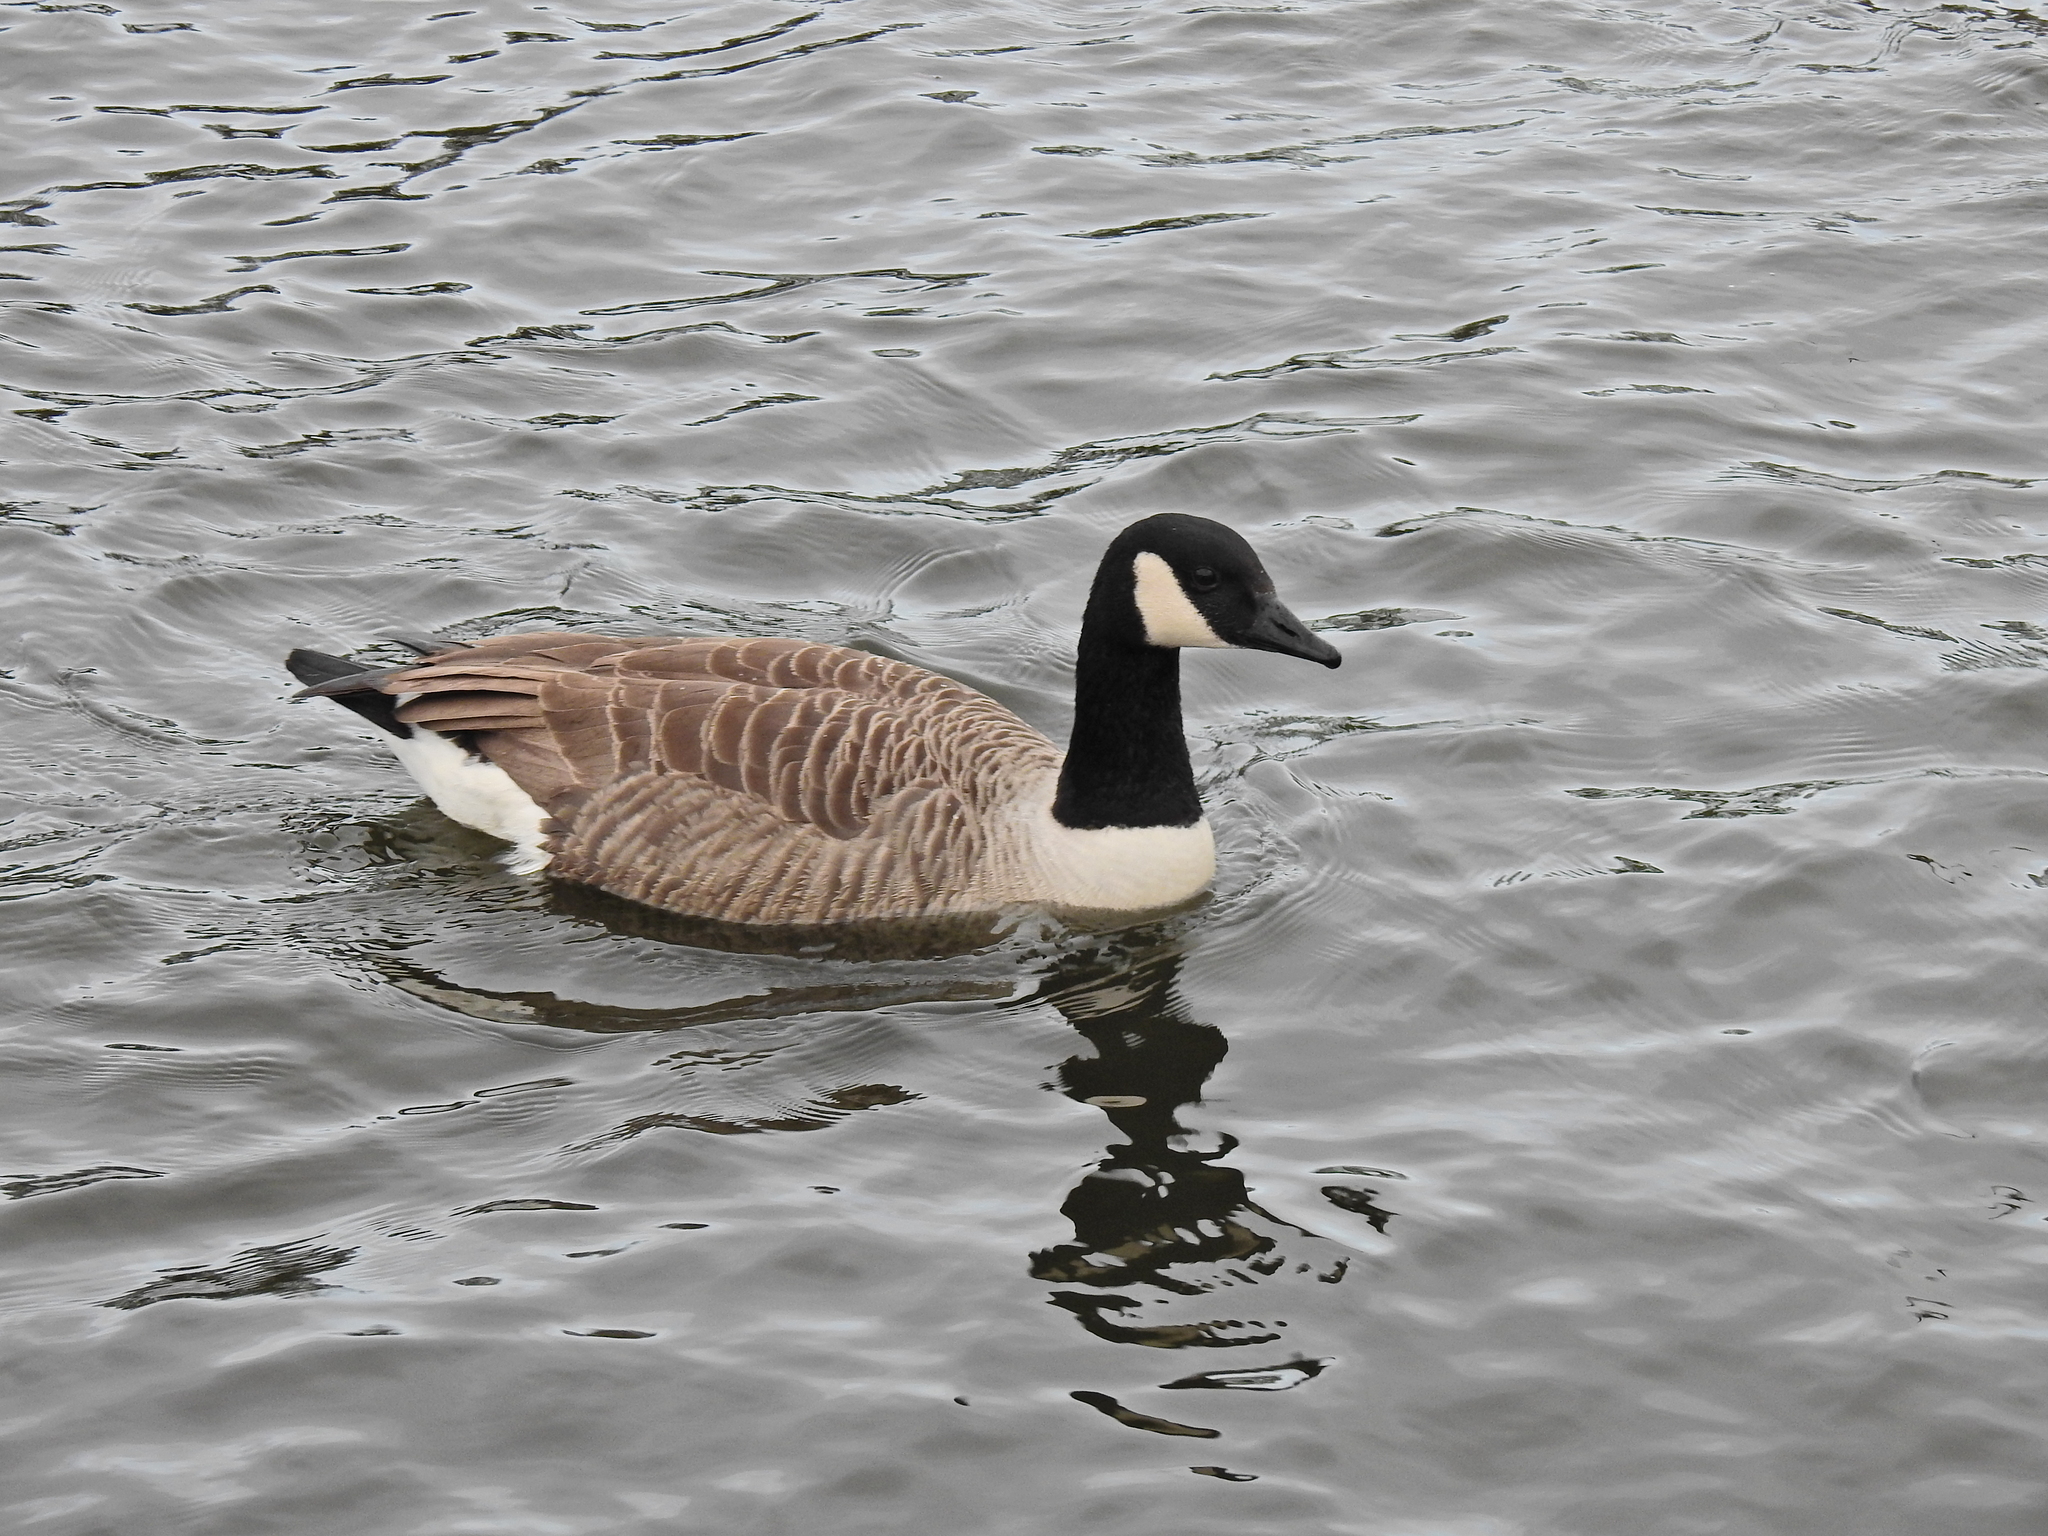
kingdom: Animalia
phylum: Chordata
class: Aves
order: Anseriformes
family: Anatidae
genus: Branta
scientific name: Branta canadensis
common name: Canada goose
